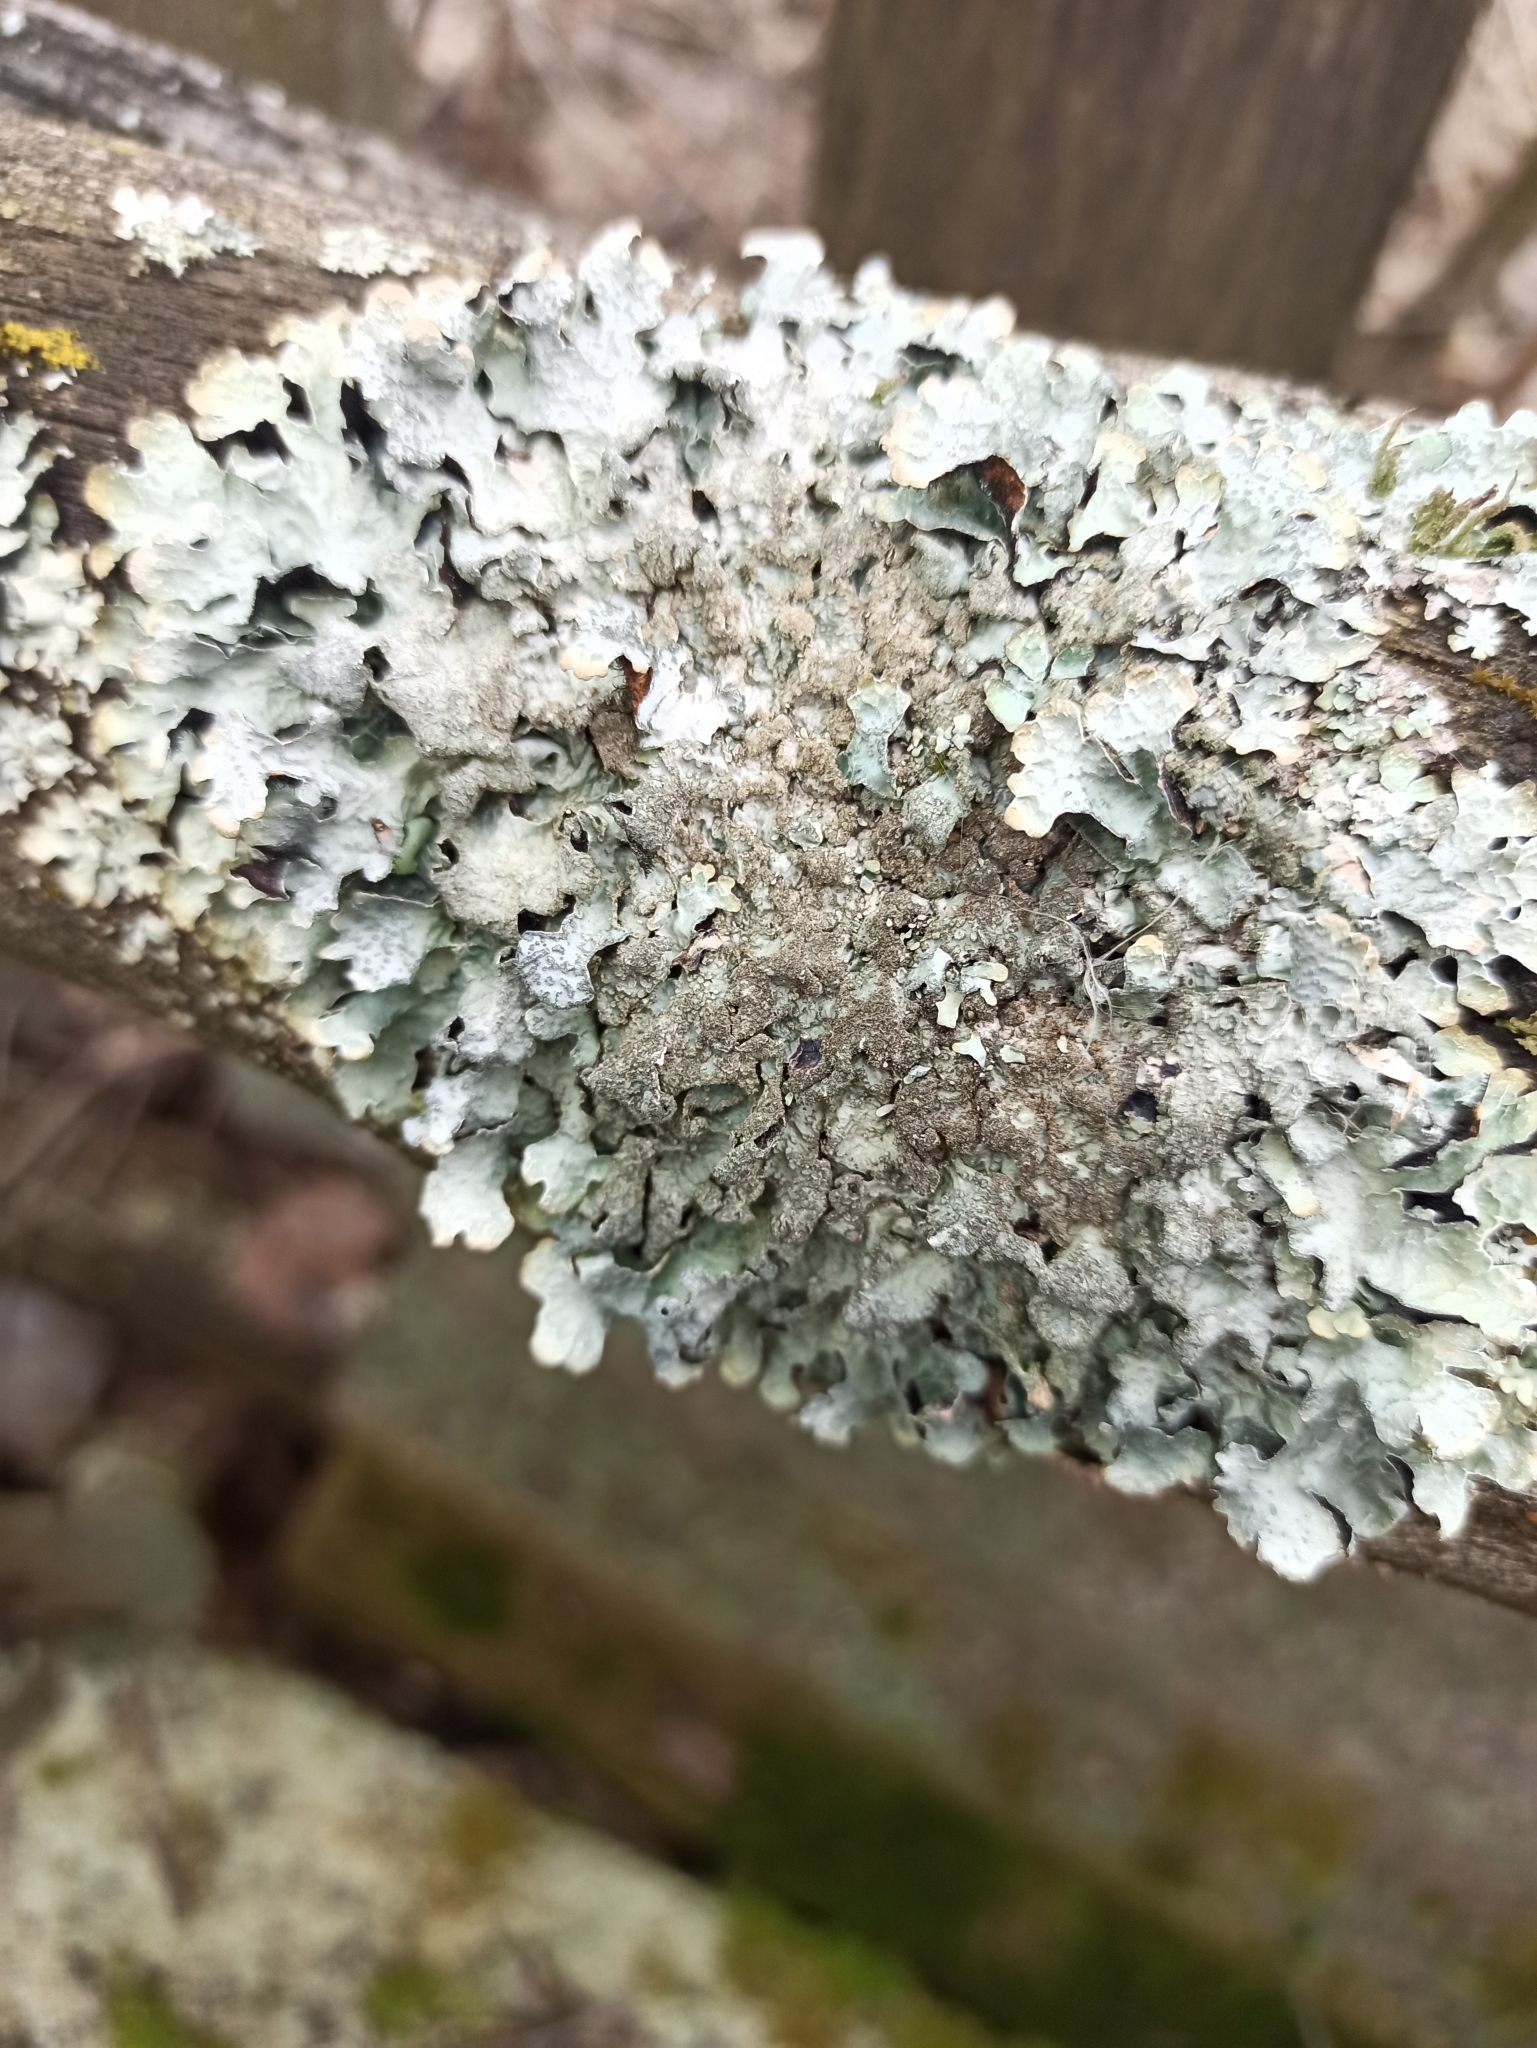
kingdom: Fungi
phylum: Ascomycota
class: Lecanoromycetes
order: Lecanorales
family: Parmeliaceae
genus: Parmelia
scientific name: Parmelia sulcata
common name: Netted shield lichen
